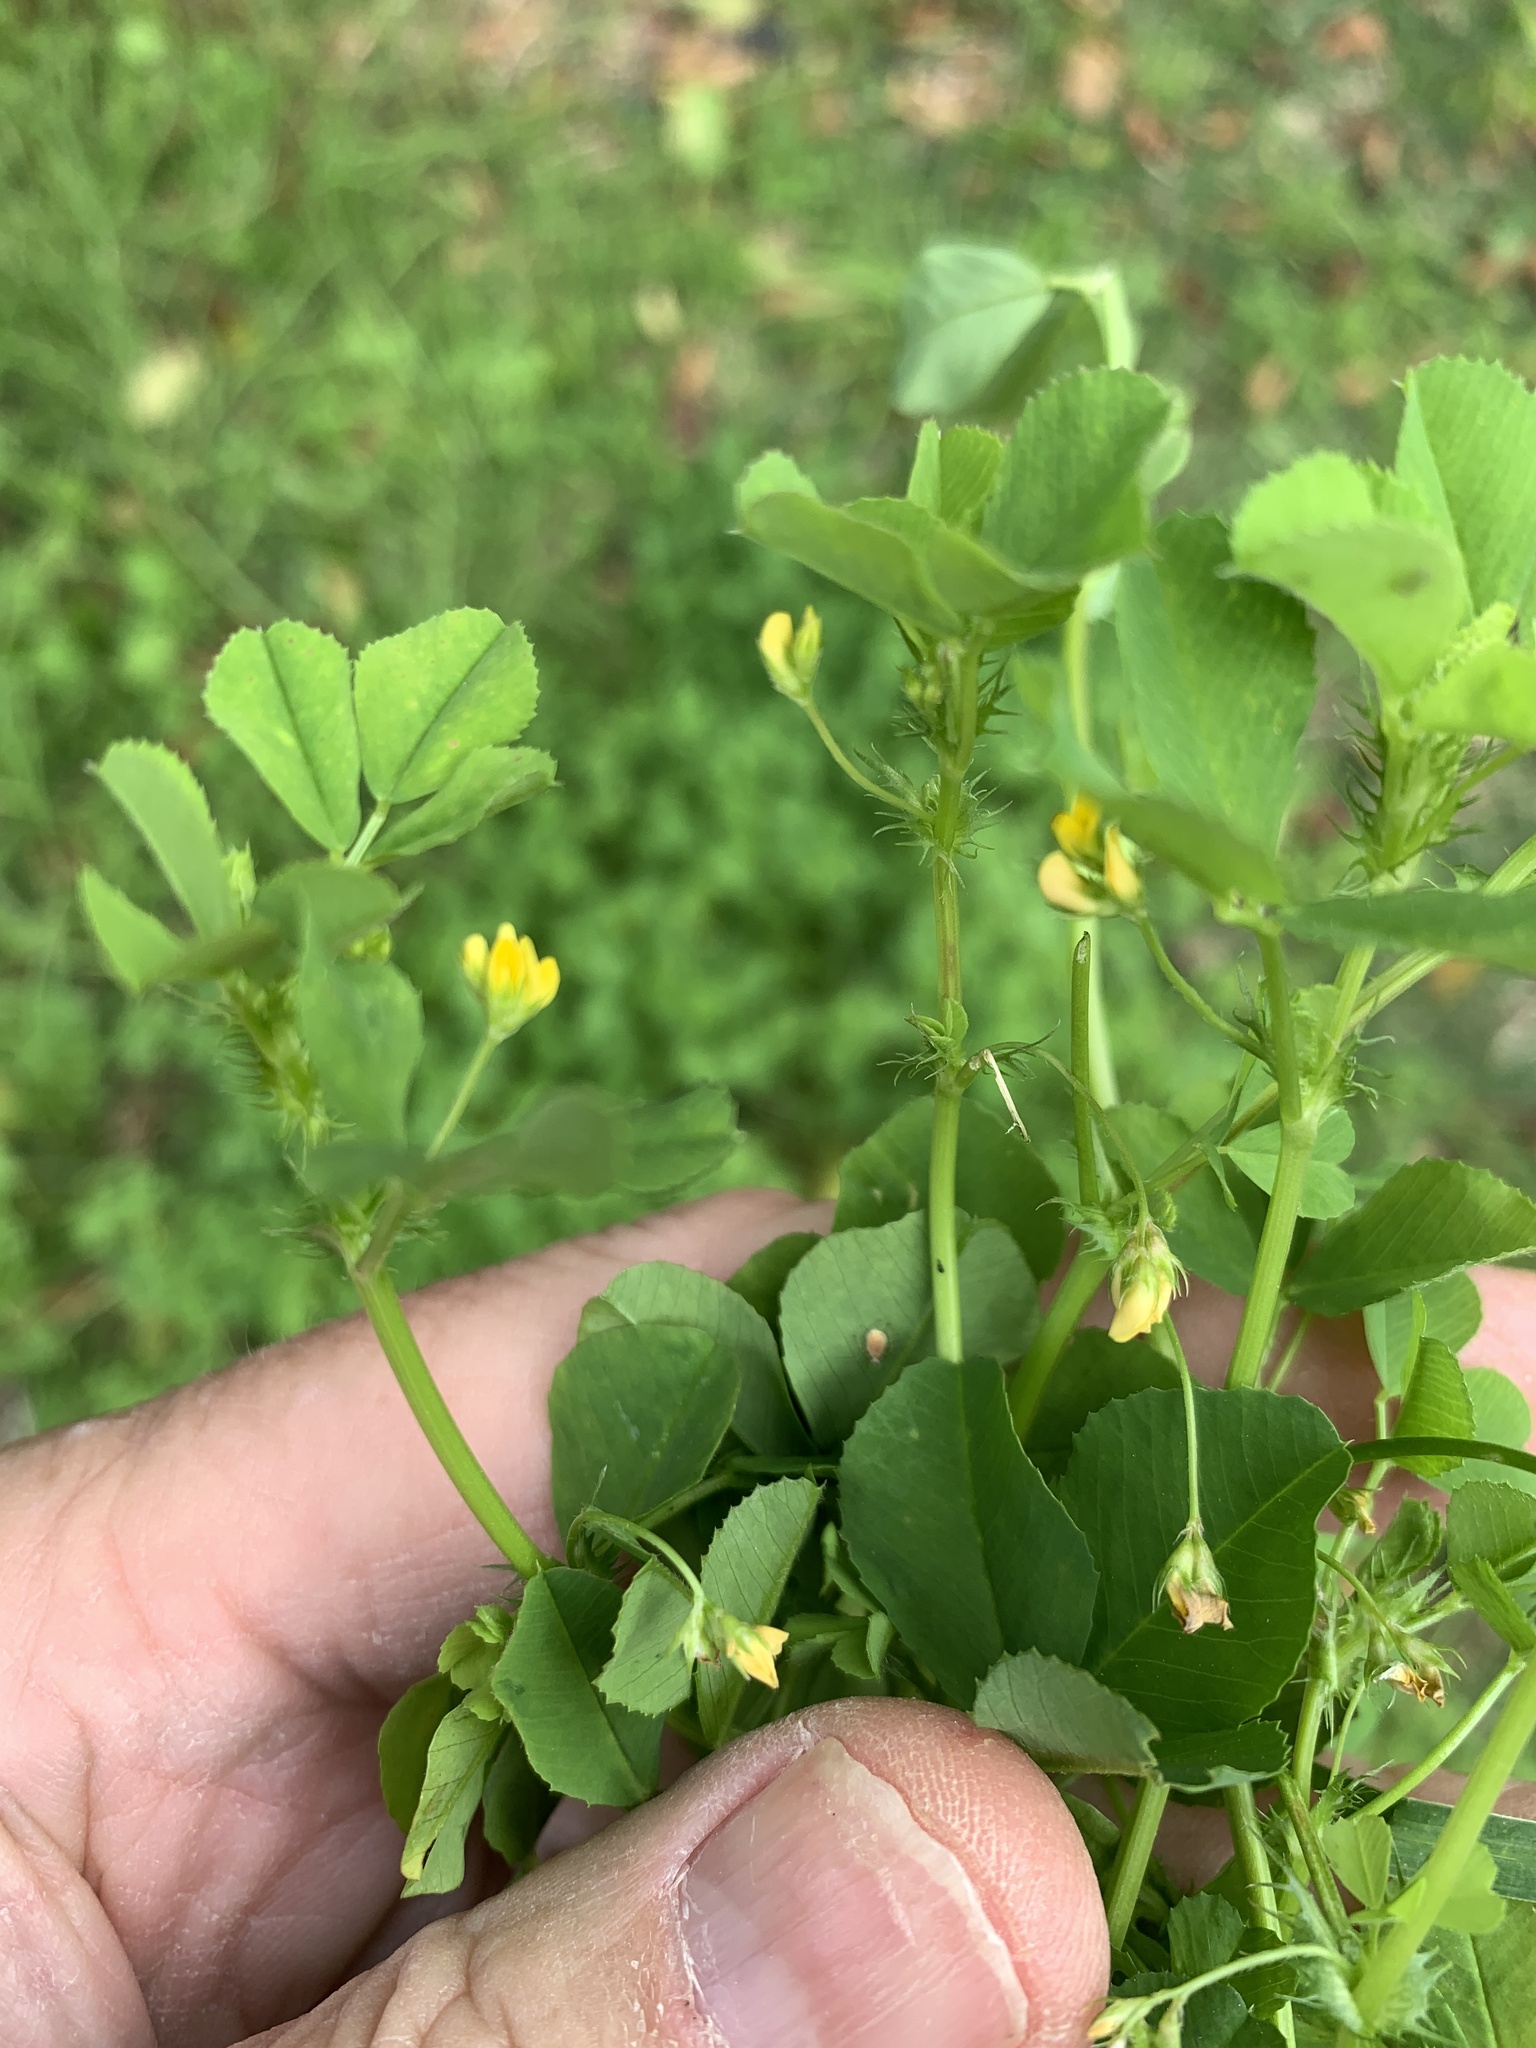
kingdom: Plantae
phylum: Tracheophyta
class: Magnoliopsida
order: Fabales
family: Fabaceae
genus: Medicago
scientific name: Medicago polymorpha
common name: Burclover
